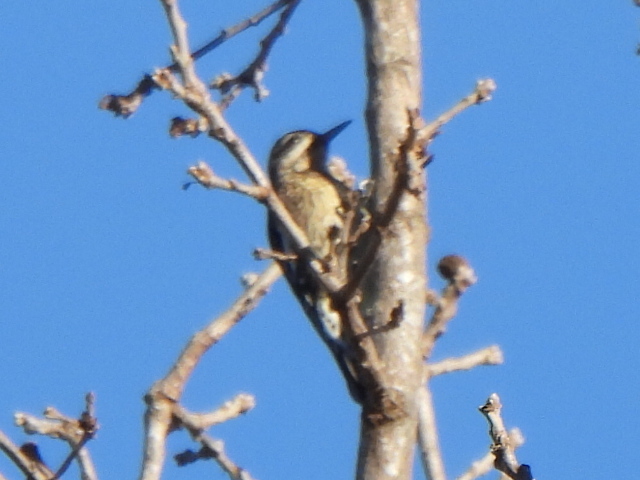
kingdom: Animalia
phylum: Chordata
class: Aves
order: Piciformes
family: Picidae
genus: Sphyrapicus
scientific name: Sphyrapicus varius
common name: Yellow-bellied sapsucker
